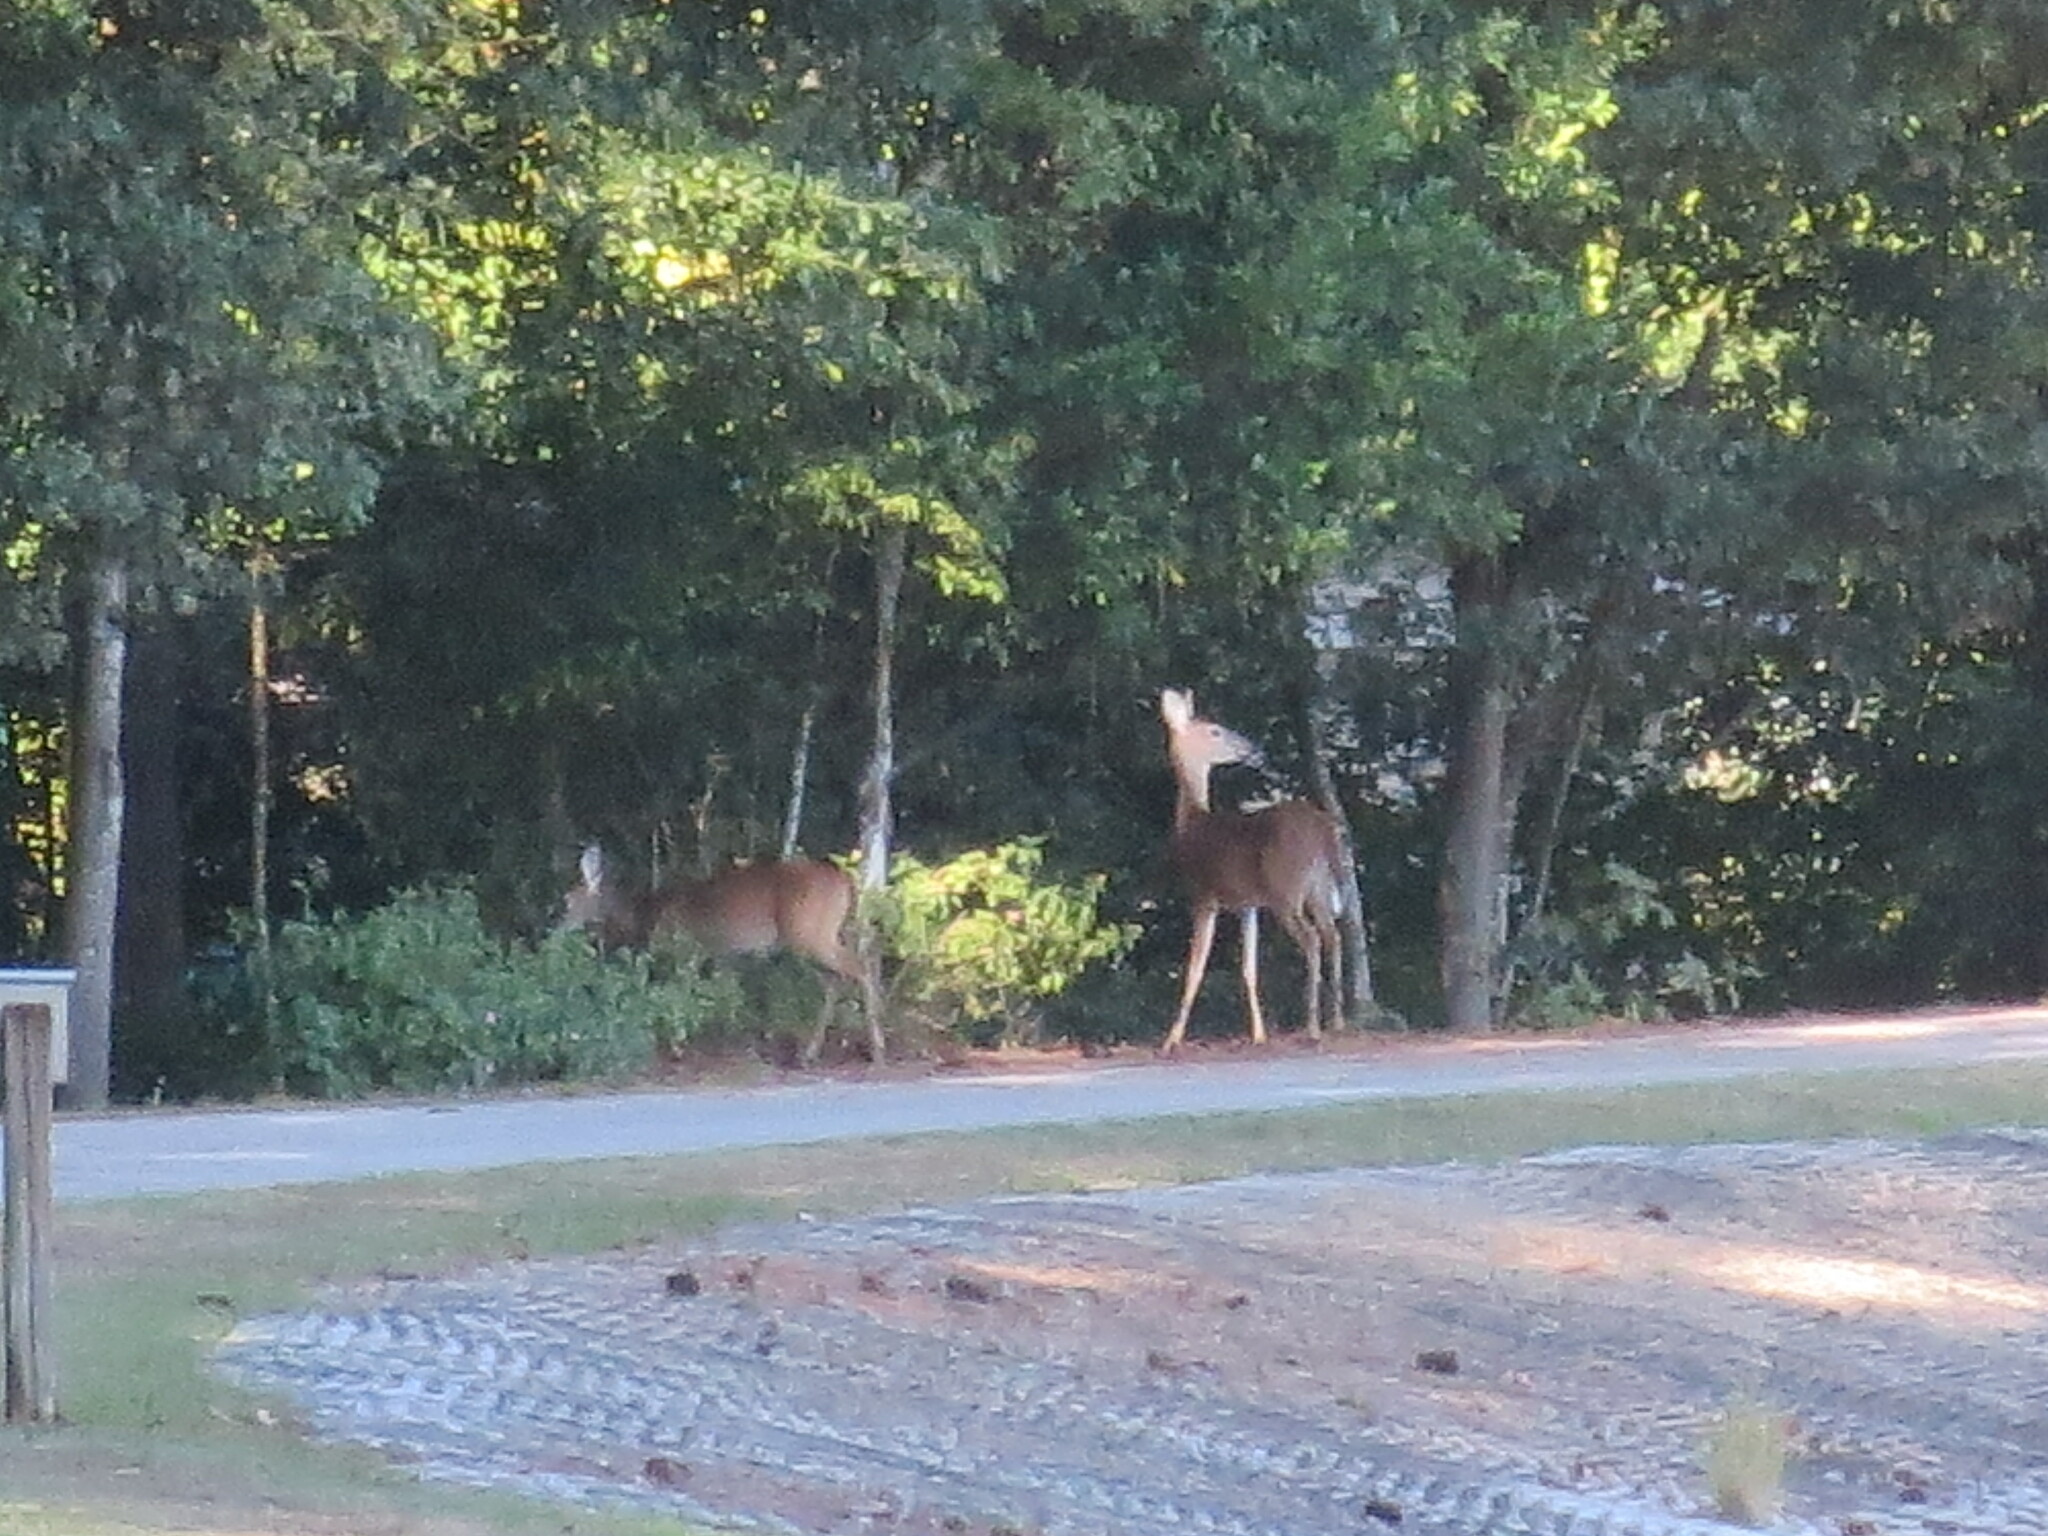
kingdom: Animalia
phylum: Chordata
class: Mammalia
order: Artiodactyla
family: Cervidae
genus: Odocoileus
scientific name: Odocoileus virginianus
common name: White-tailed deer
